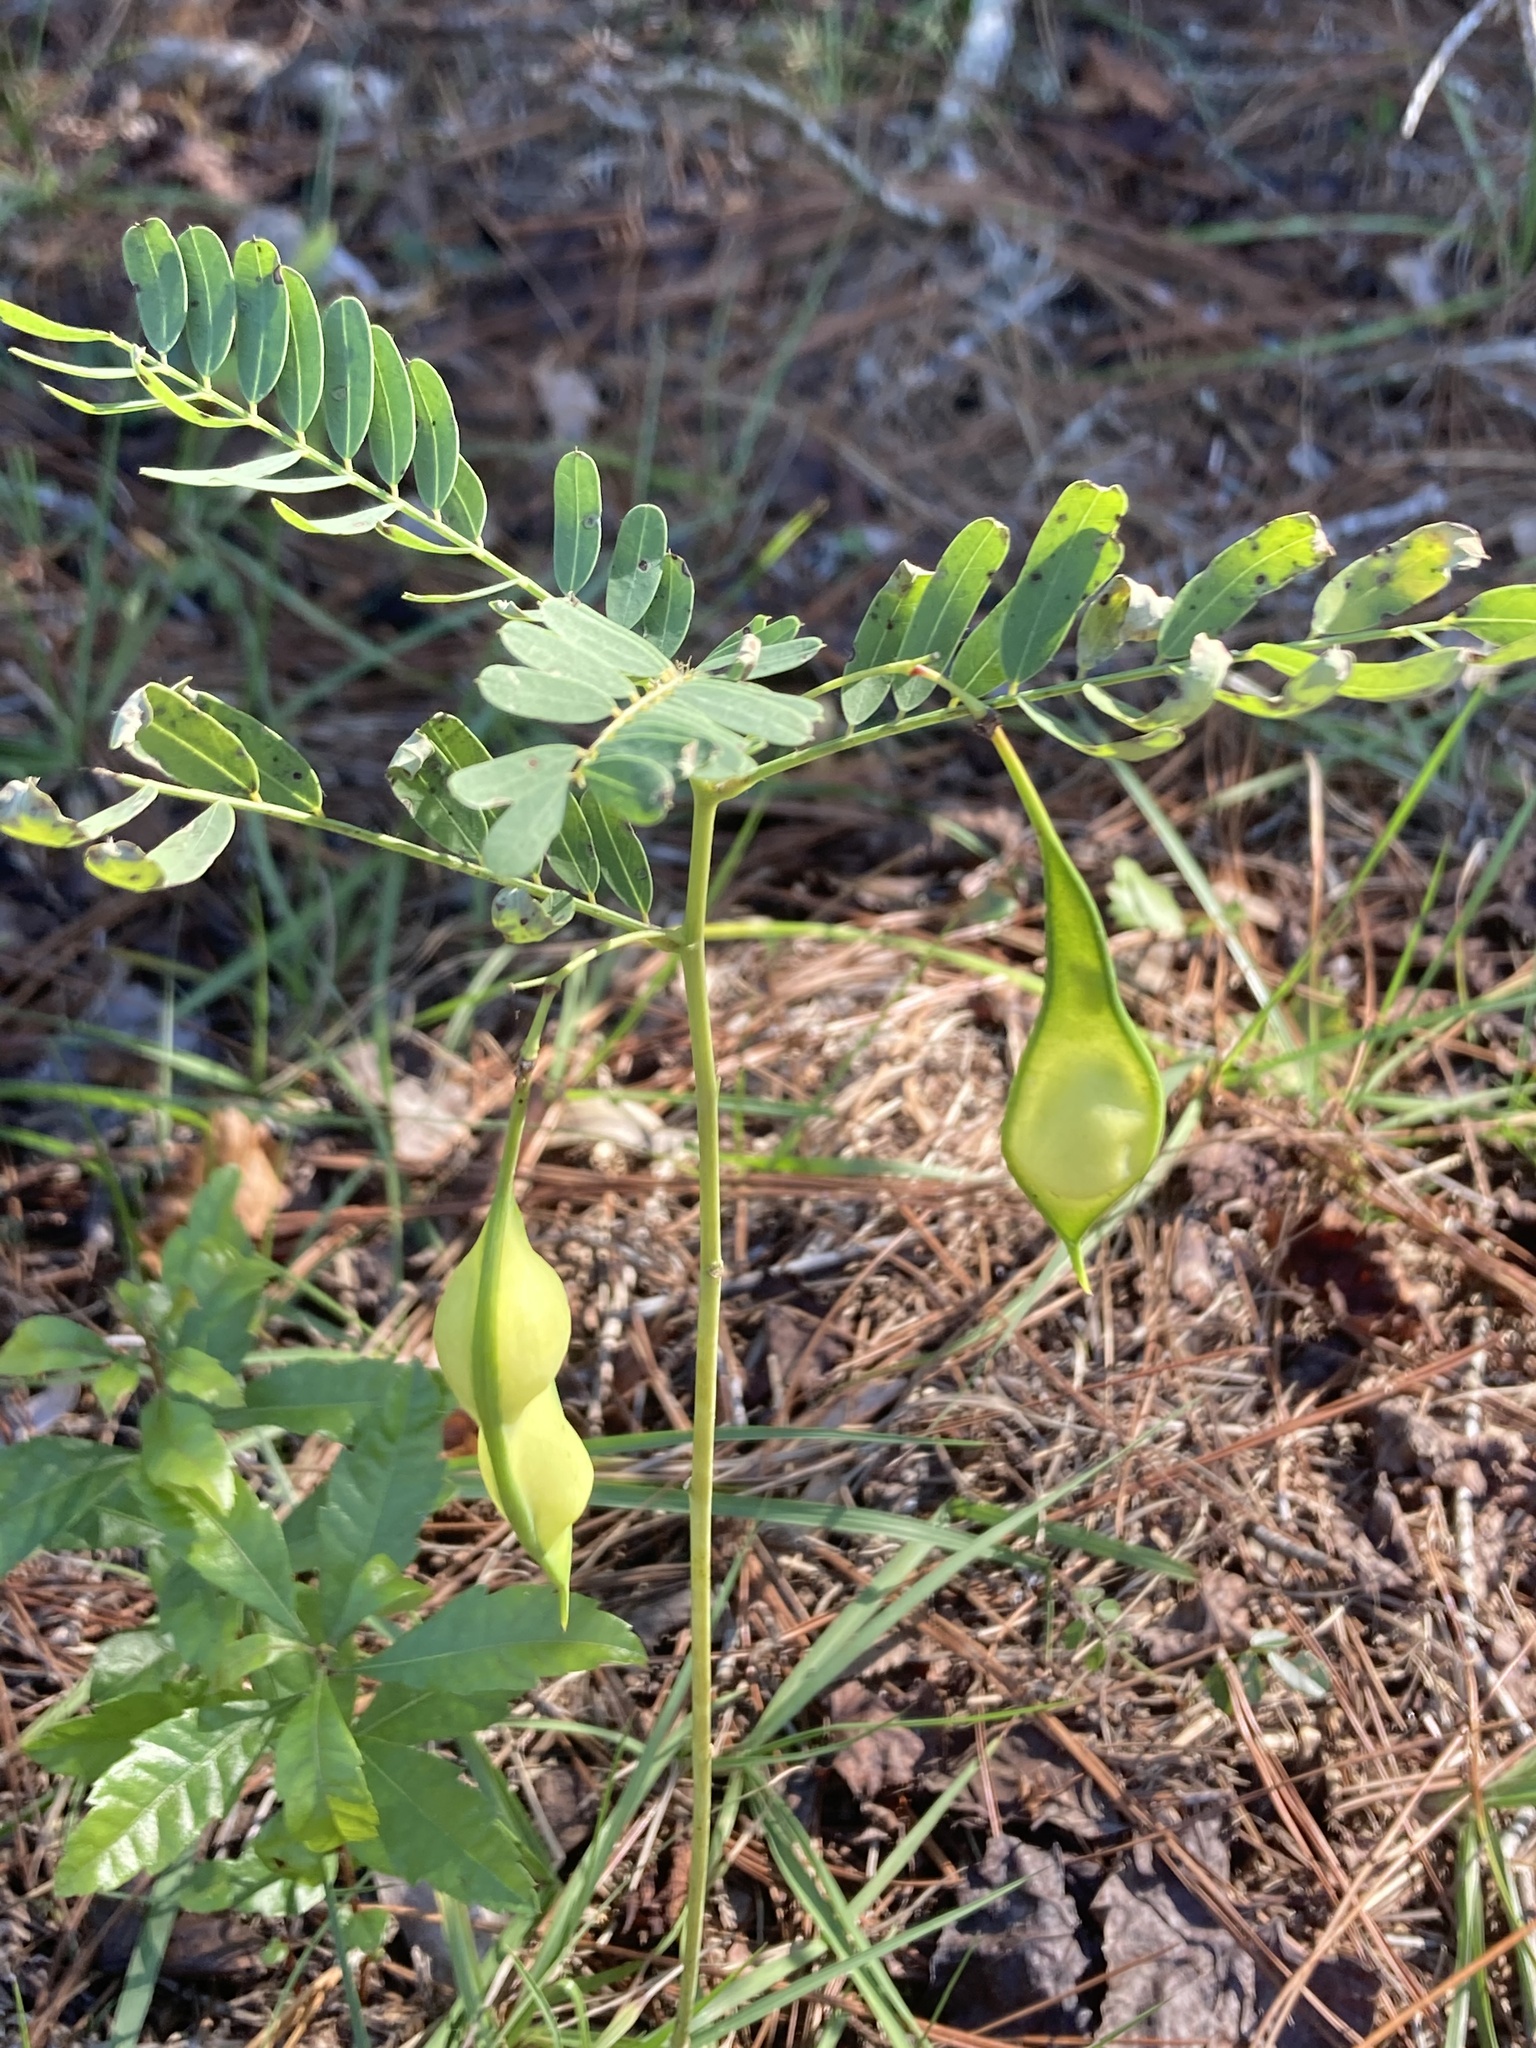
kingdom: Plantae
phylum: Tracheophyta
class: Magnoliopsida
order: Fabales
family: Fabaceae
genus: Sesbania
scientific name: Sesbania vesicaria
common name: Bagpod
